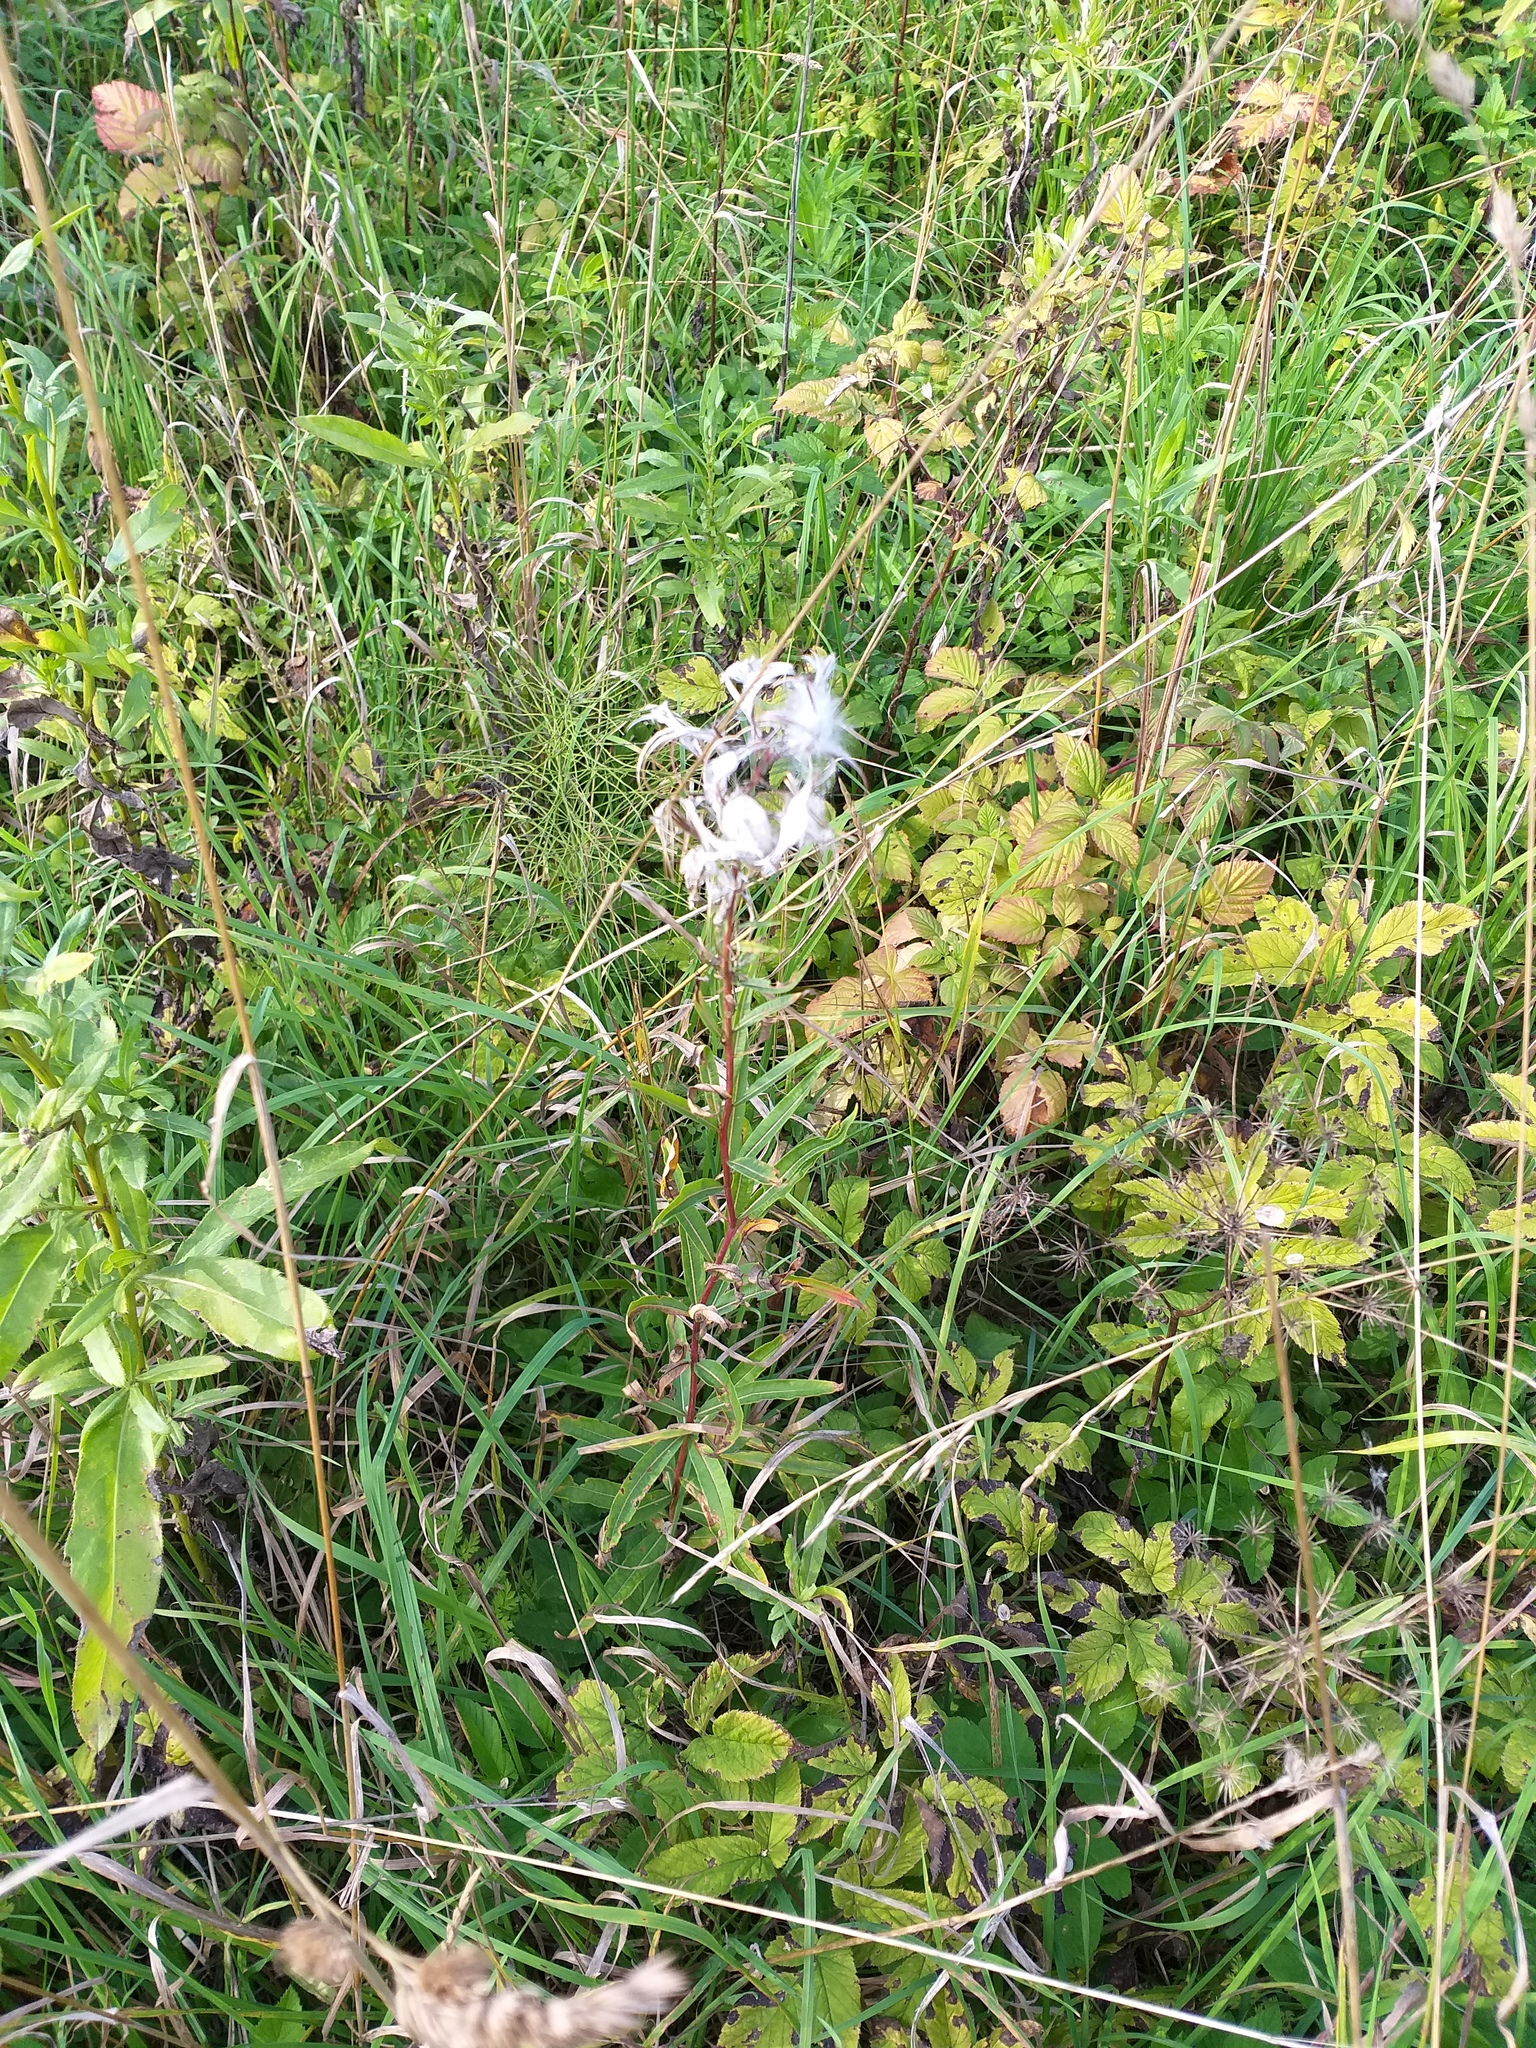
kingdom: Plantae
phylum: Tracheophyta
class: Magnoliopsida
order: Myrtales
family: Onagraceae
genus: Chamaenerion
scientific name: Chamaenerion angustifolium
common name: Fireweed
